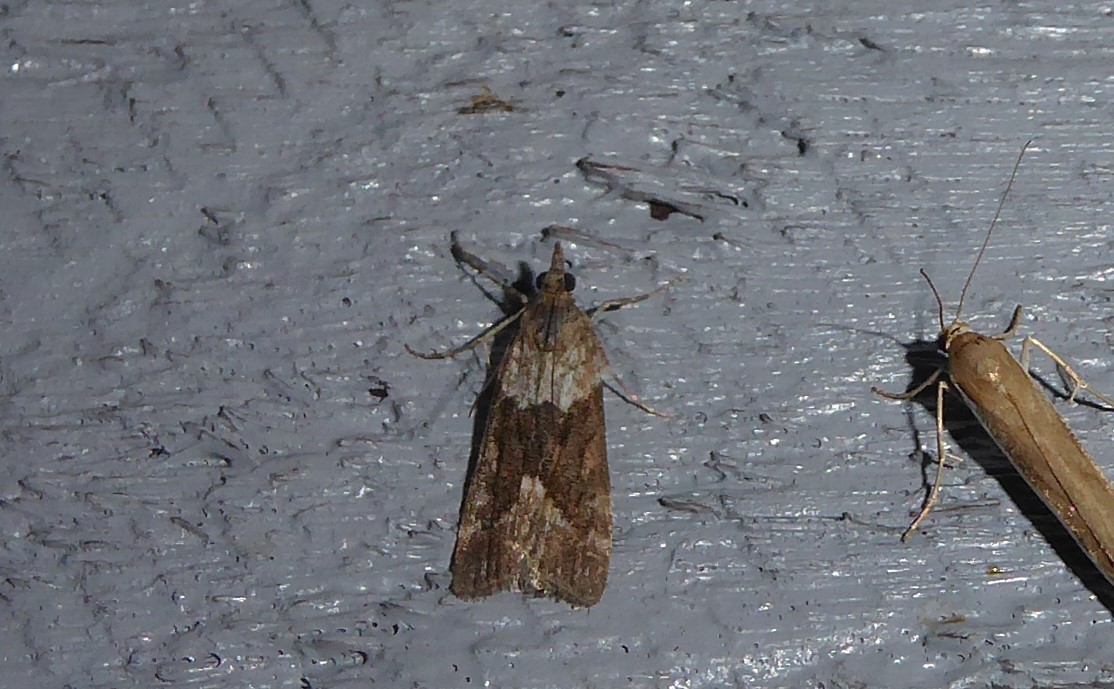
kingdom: Animalia
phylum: Arthropoda
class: Insecta
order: Lepidoptera
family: Crambidae
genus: Eudonia
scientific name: Eudonia submarginalis
